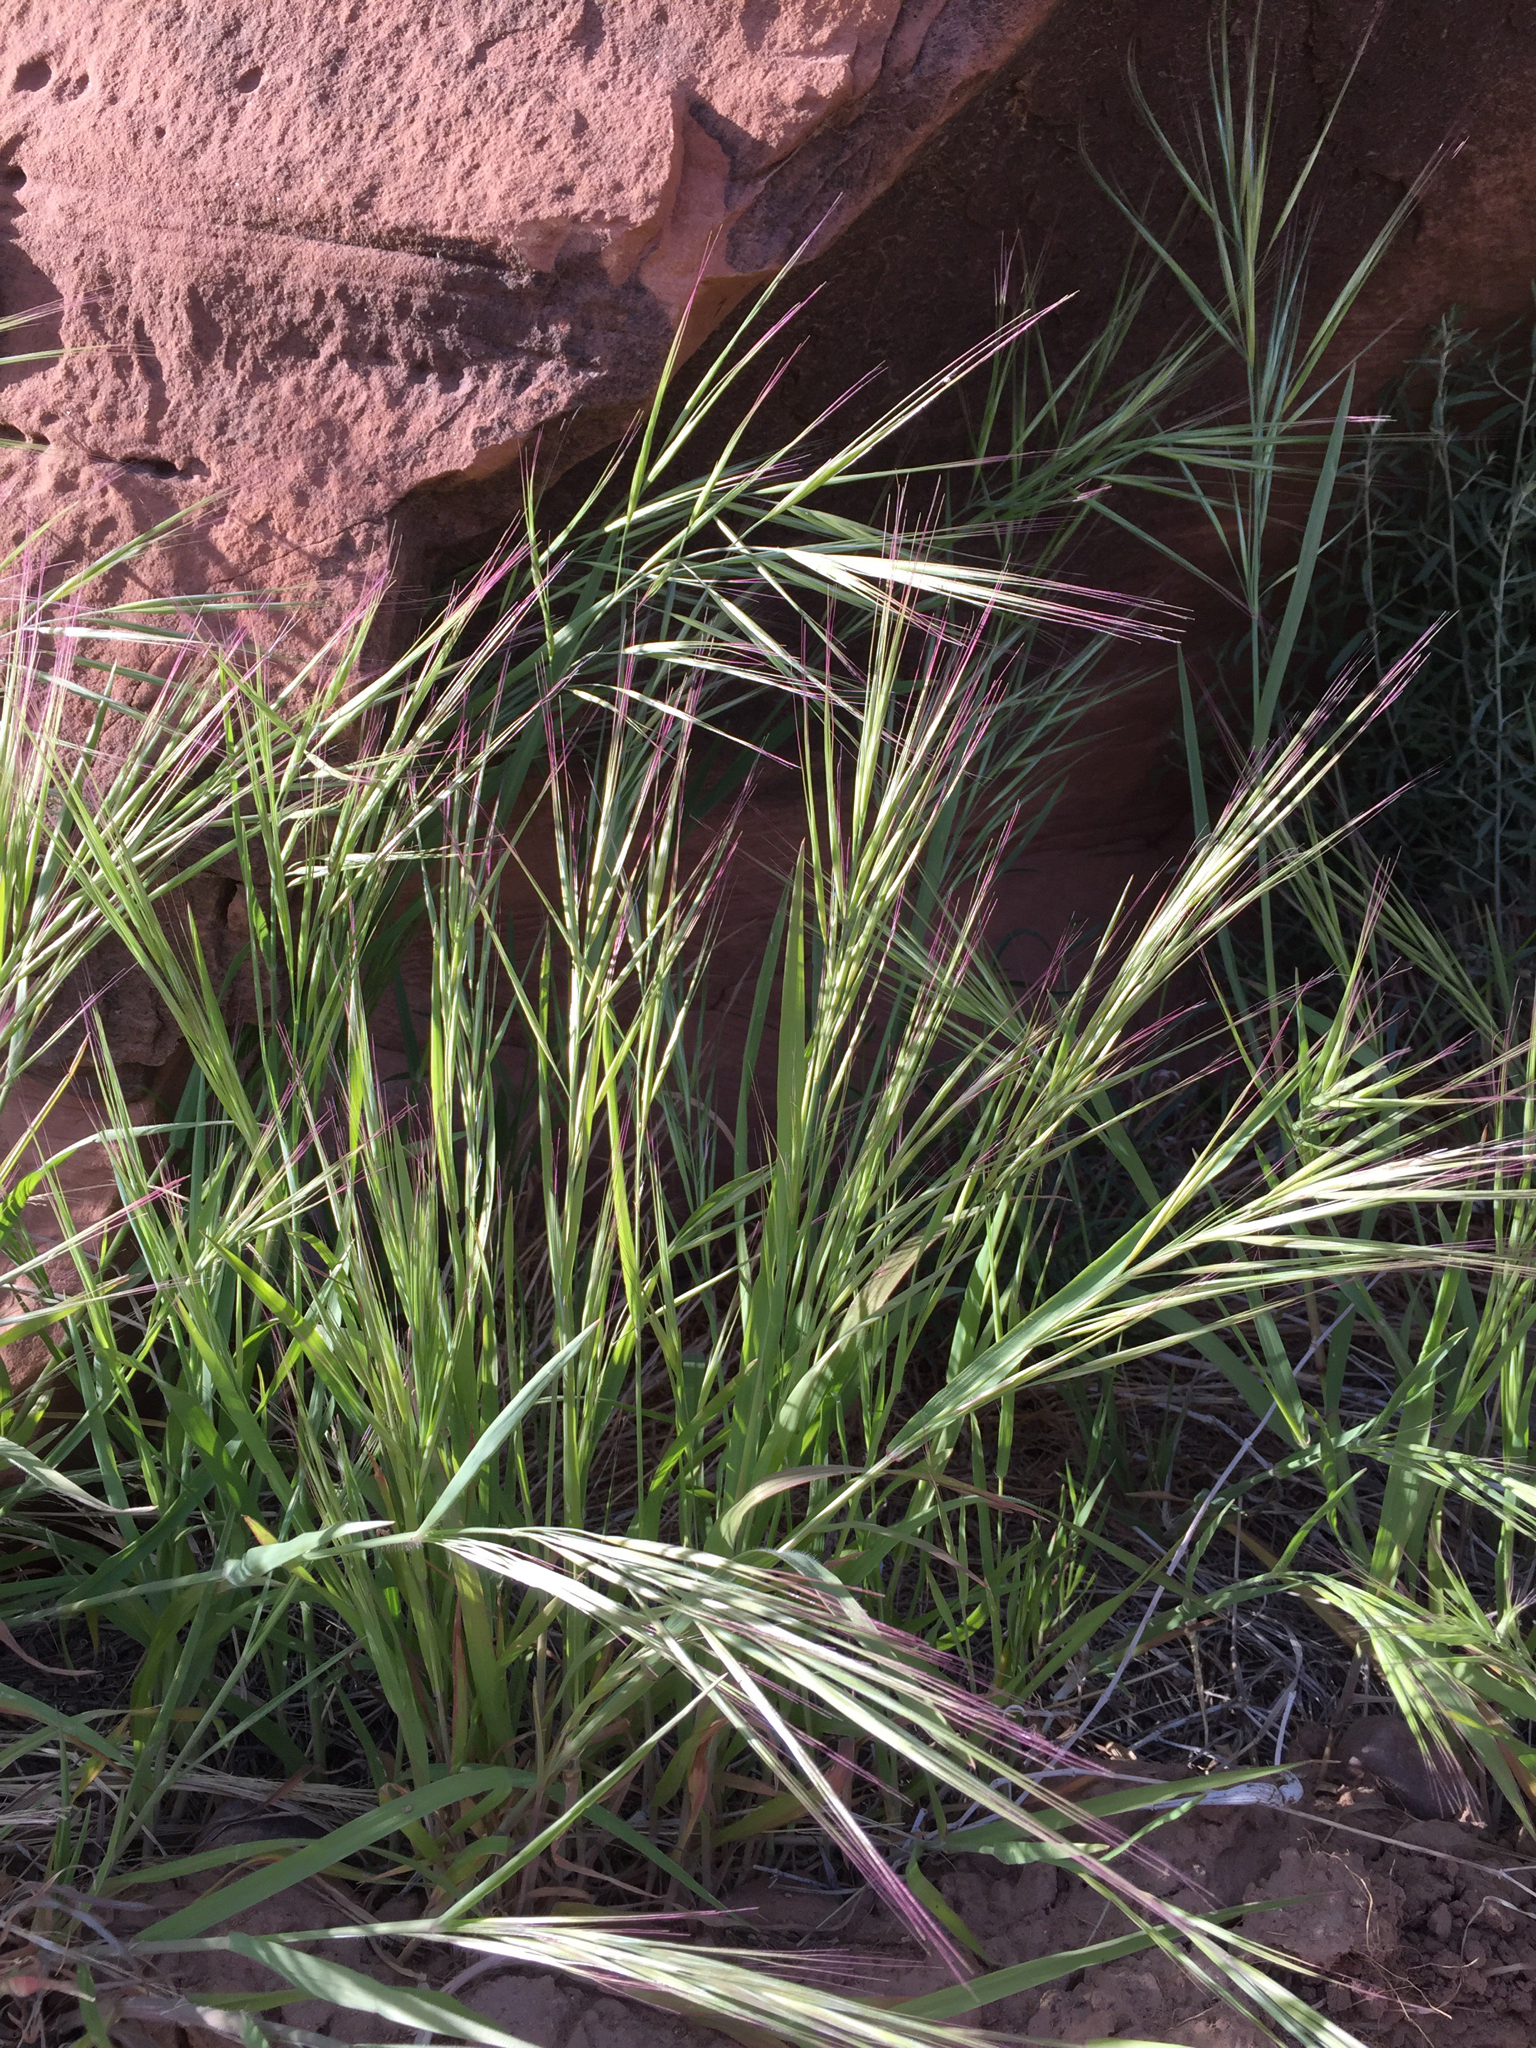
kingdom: Plantae
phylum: Tracheophyta
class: Liliopsida
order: Poales
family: Poaceae
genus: Bromus
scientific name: Bromus diandrus
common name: Ripgut brome
